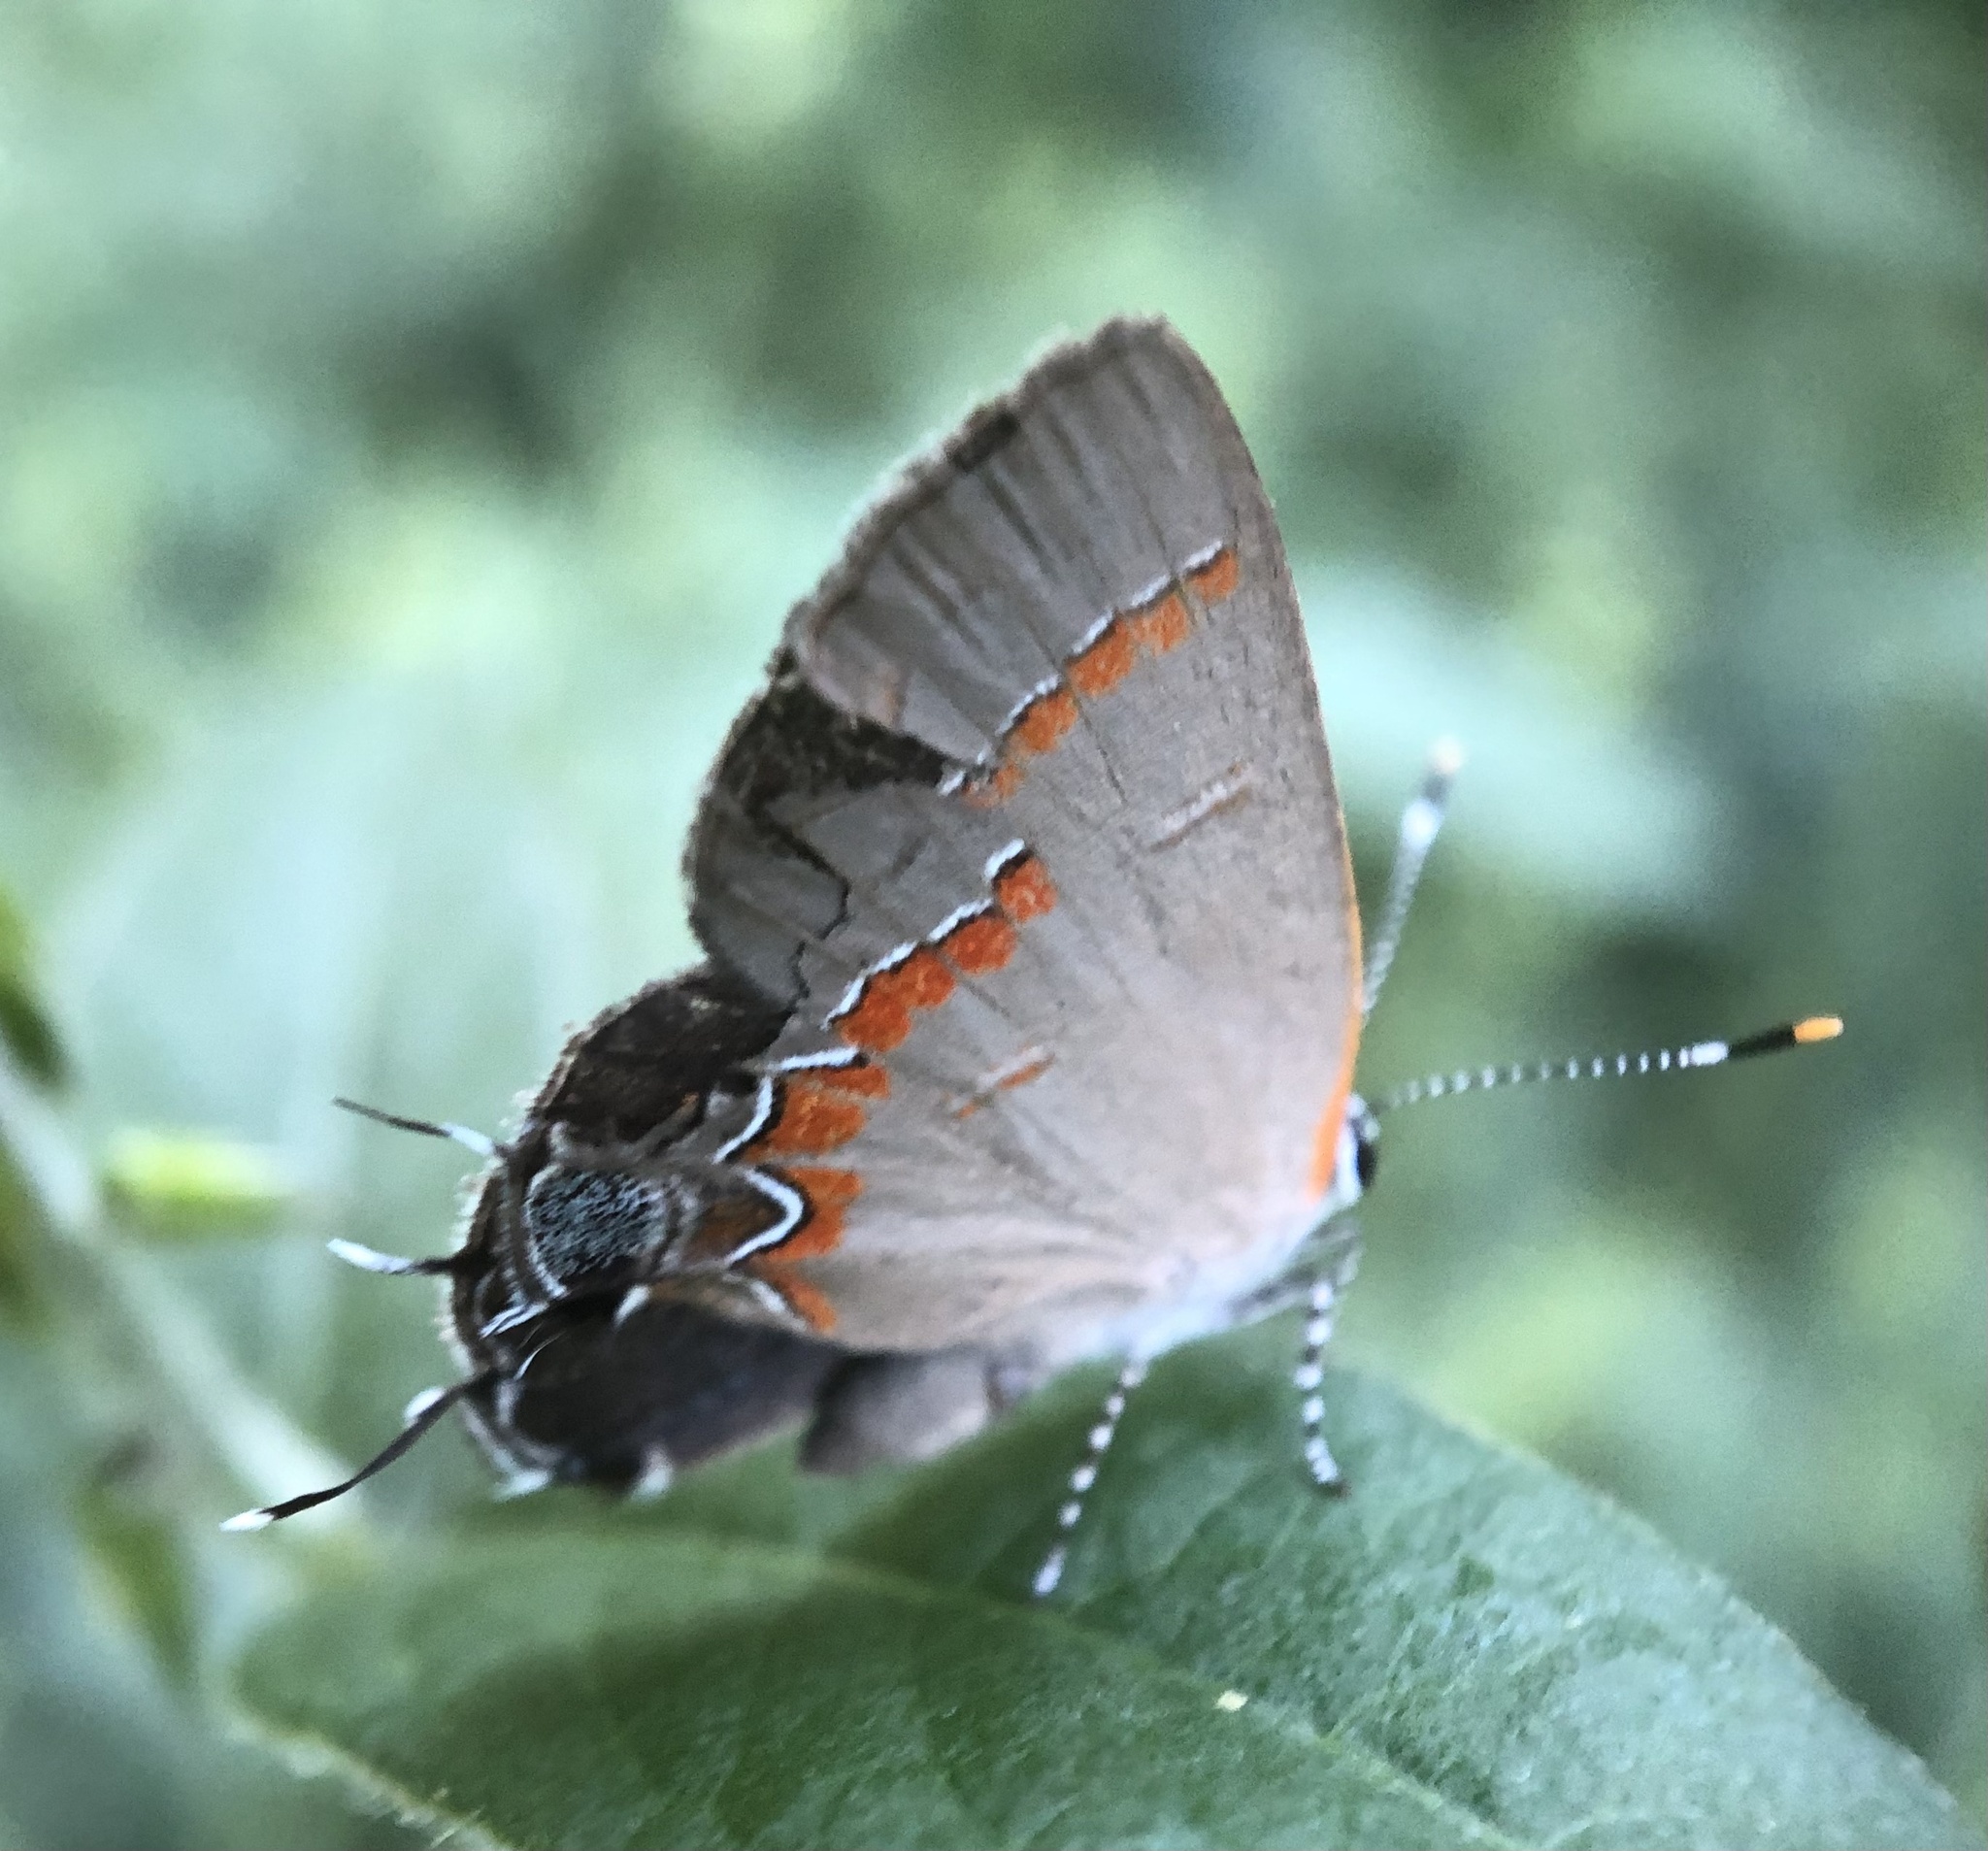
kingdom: Animalia
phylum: Arthropoda
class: Insecta
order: Lepidoptera
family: Lycaenidae
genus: Calycopis
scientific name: Calycopis cecrops
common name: Red-banded hairstreak
